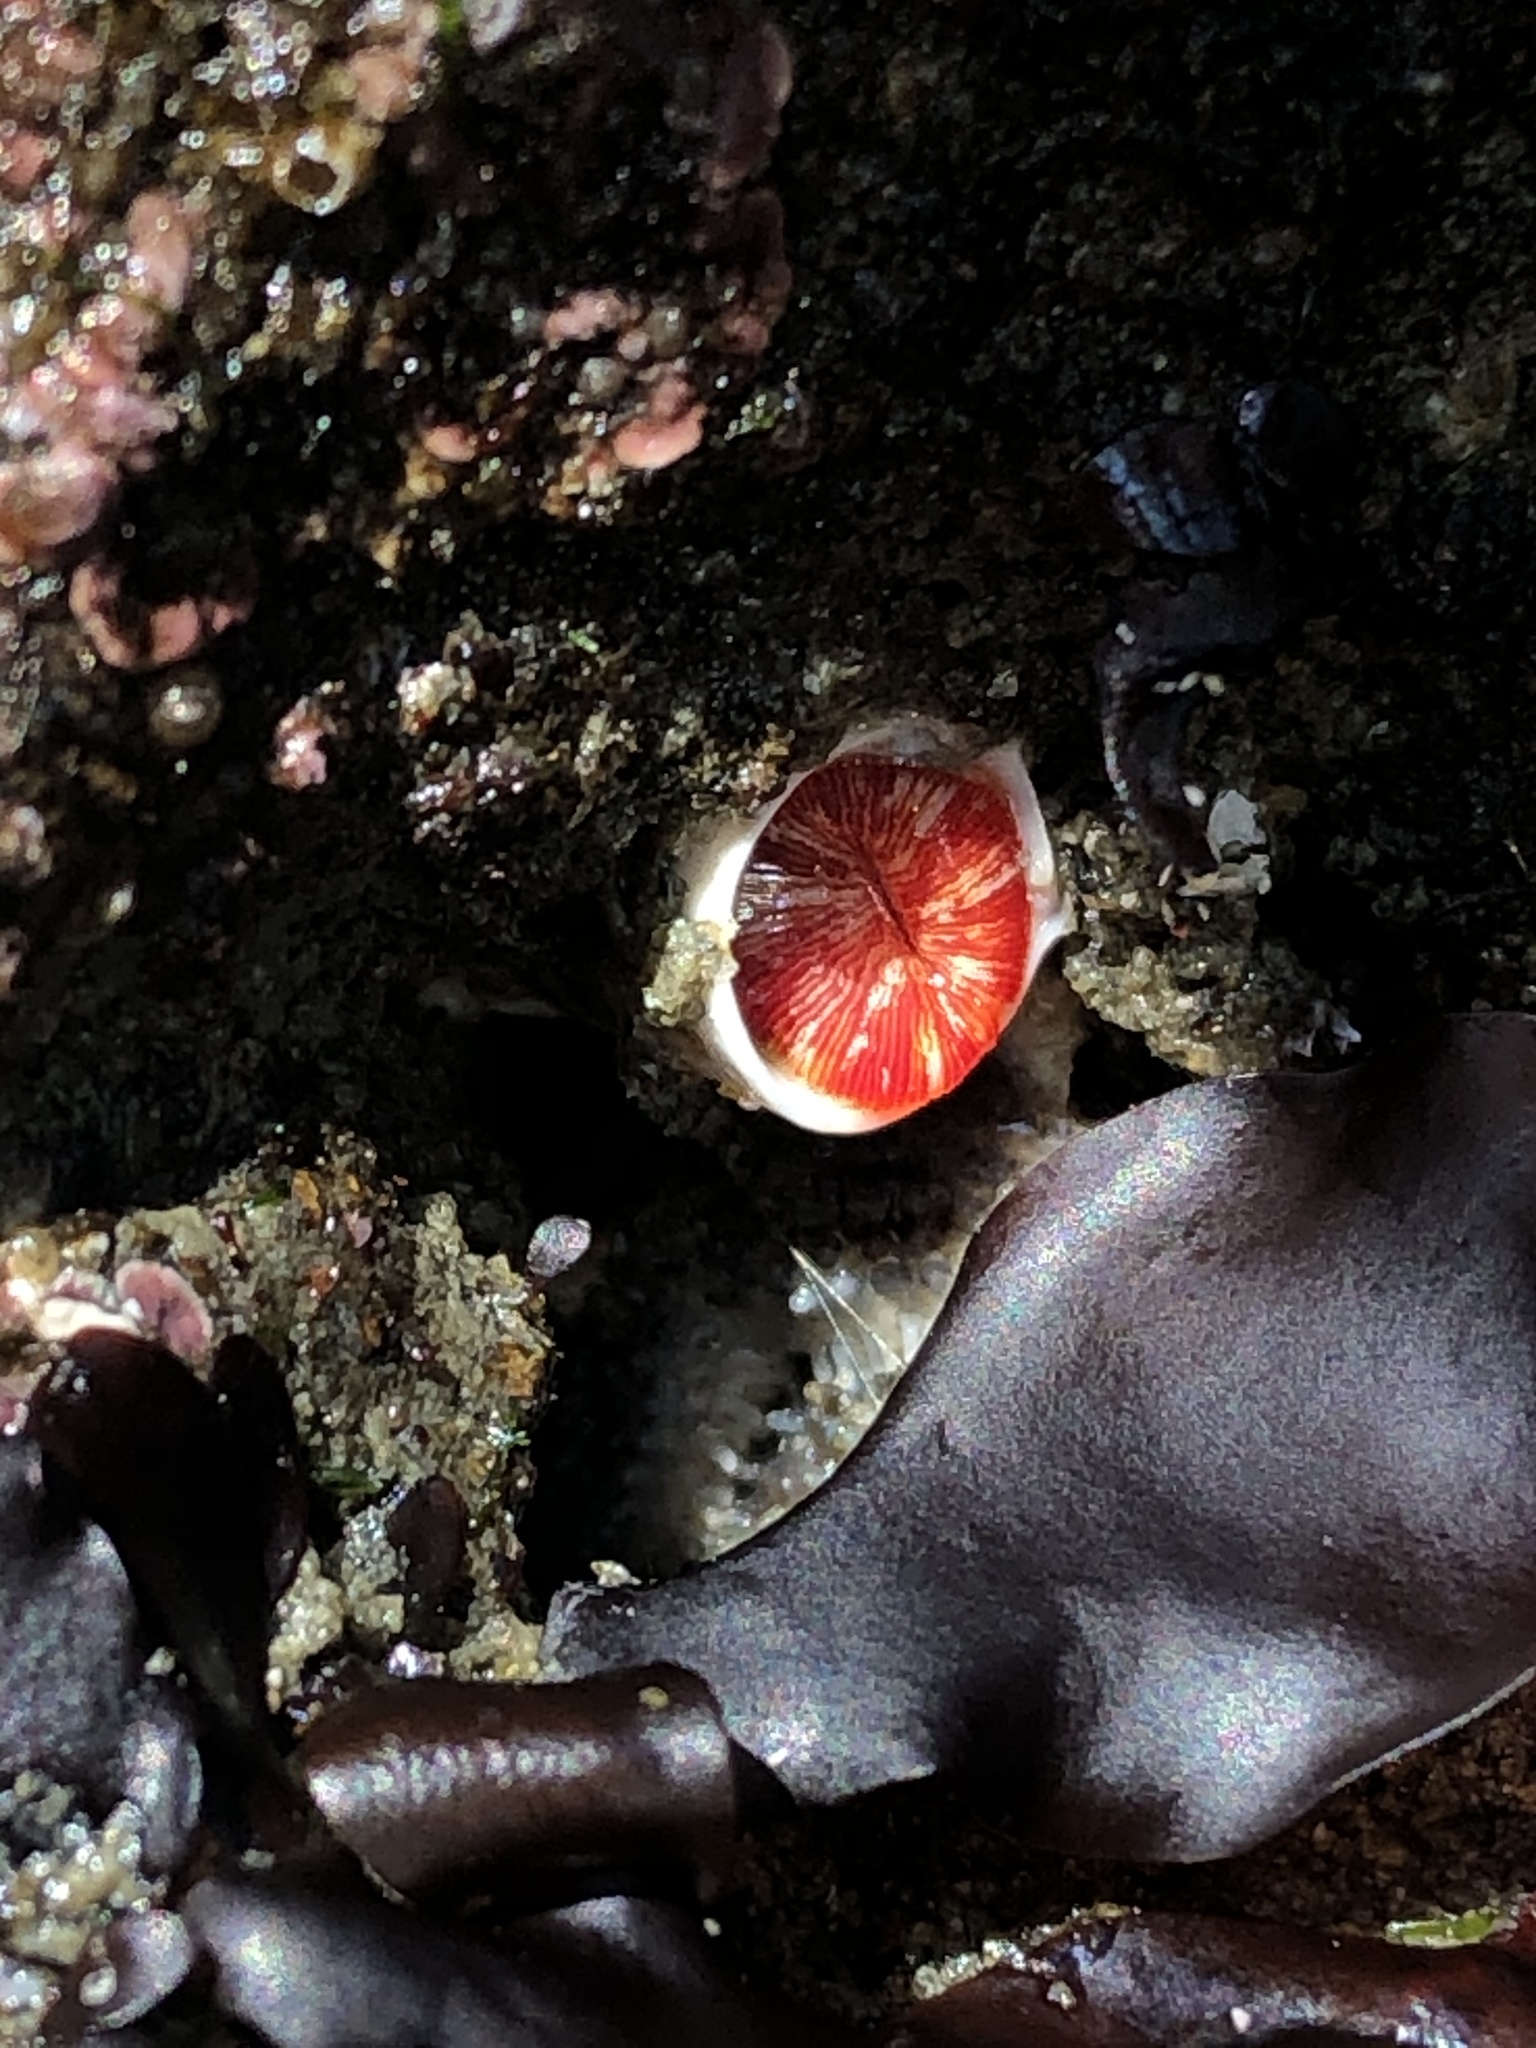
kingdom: Animalia
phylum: Annelida
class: Polychaeta
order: Sabellida
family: Serpulidae
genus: Serpula
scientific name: Serpula columbiana
